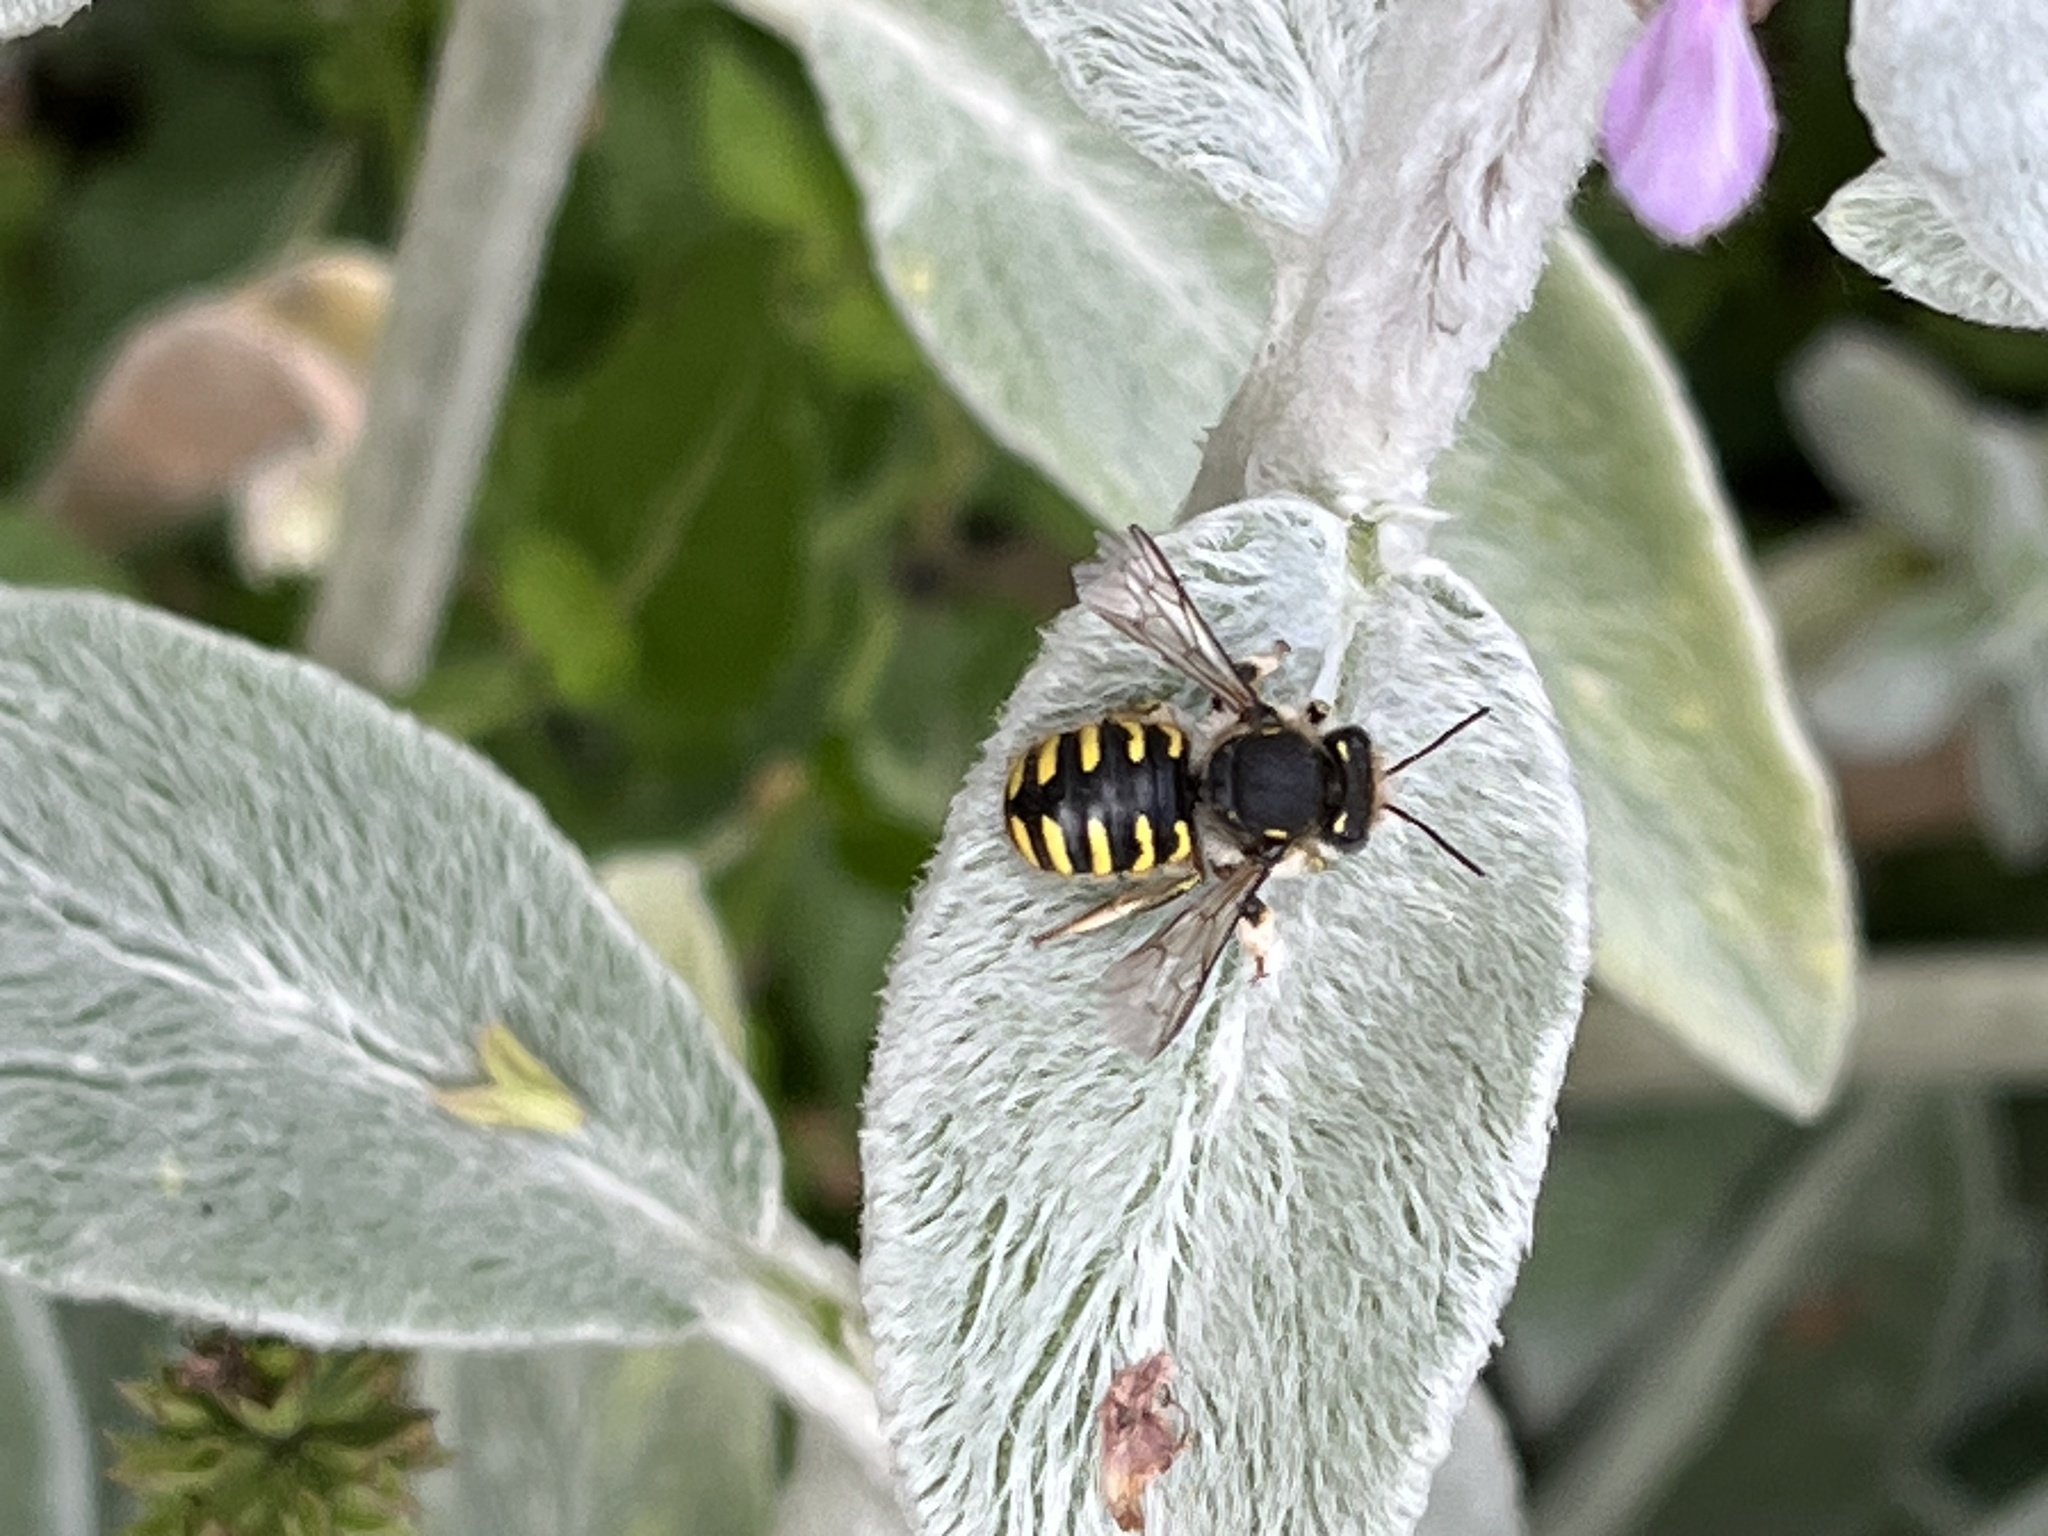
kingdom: Animalia
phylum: Arthropoda
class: Insecta
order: Hymenoptera
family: Megachilidae
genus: Anthidium
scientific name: Anthidium manicatum
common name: Wool carder bee
